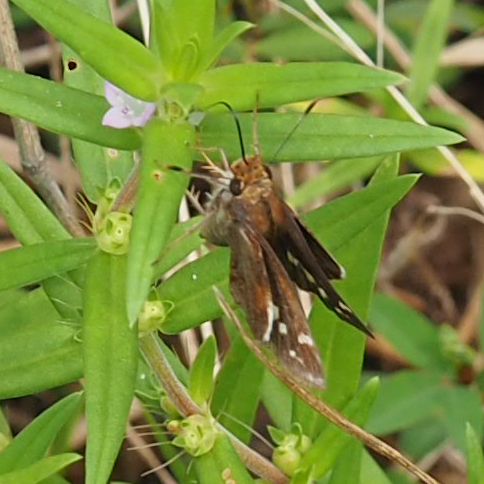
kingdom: Animalia
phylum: Arthropoda
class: Insecta
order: Lepidoptera
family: Hesperiidae
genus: Lon
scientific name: Lon zabulon
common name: Zabulon skipper
